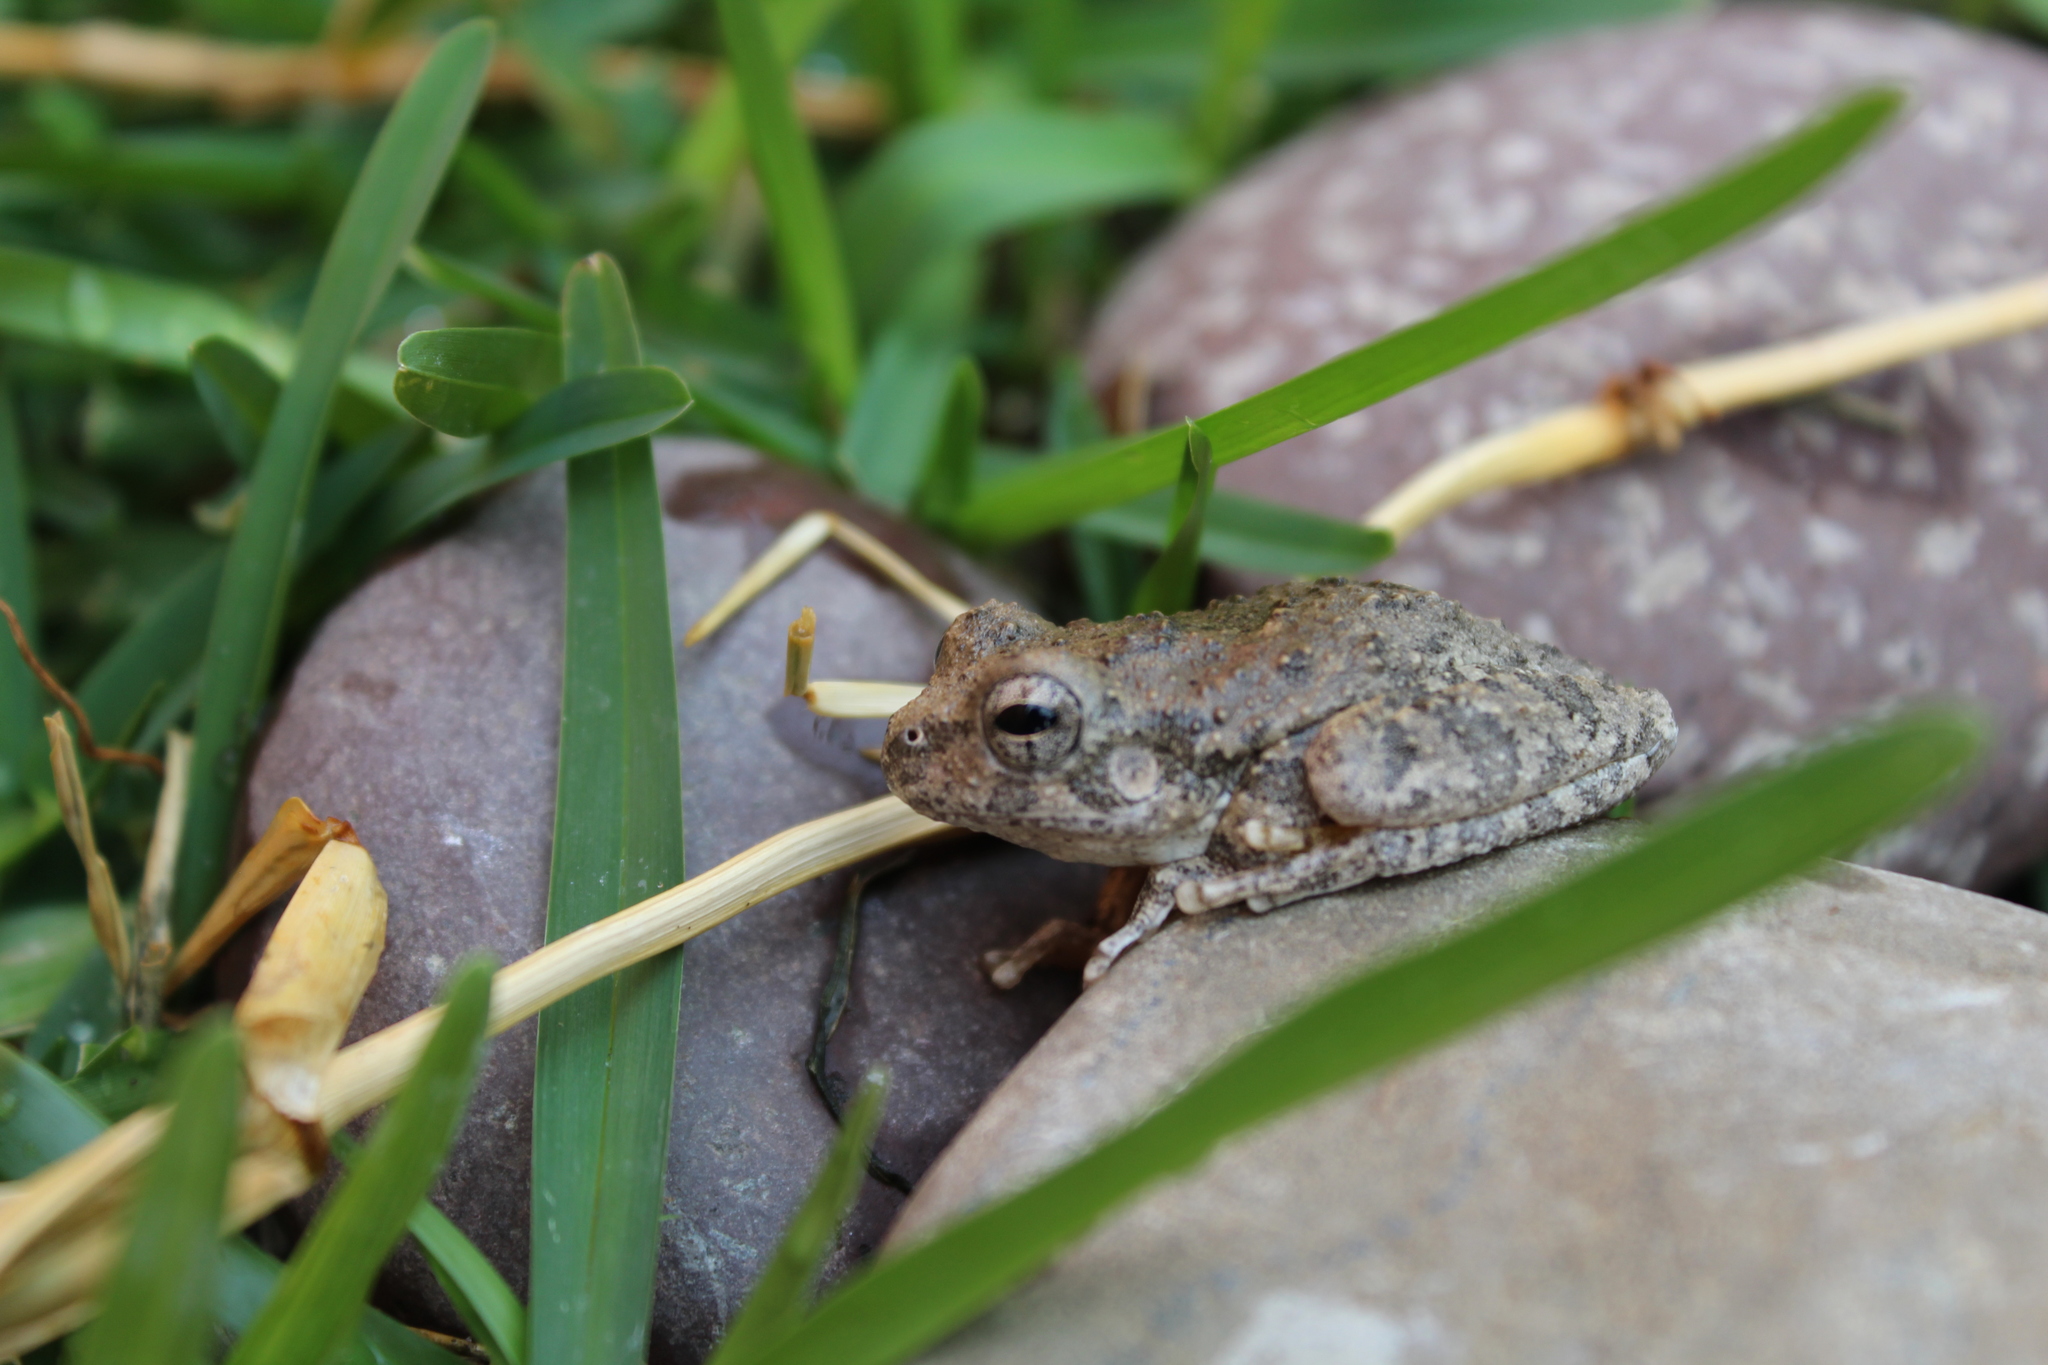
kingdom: Animalia
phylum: Chordata
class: Amphibia
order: Anura
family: Hylidae
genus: Dryophytes
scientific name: Dryophytes arenicolor
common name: Canyon treefrog
